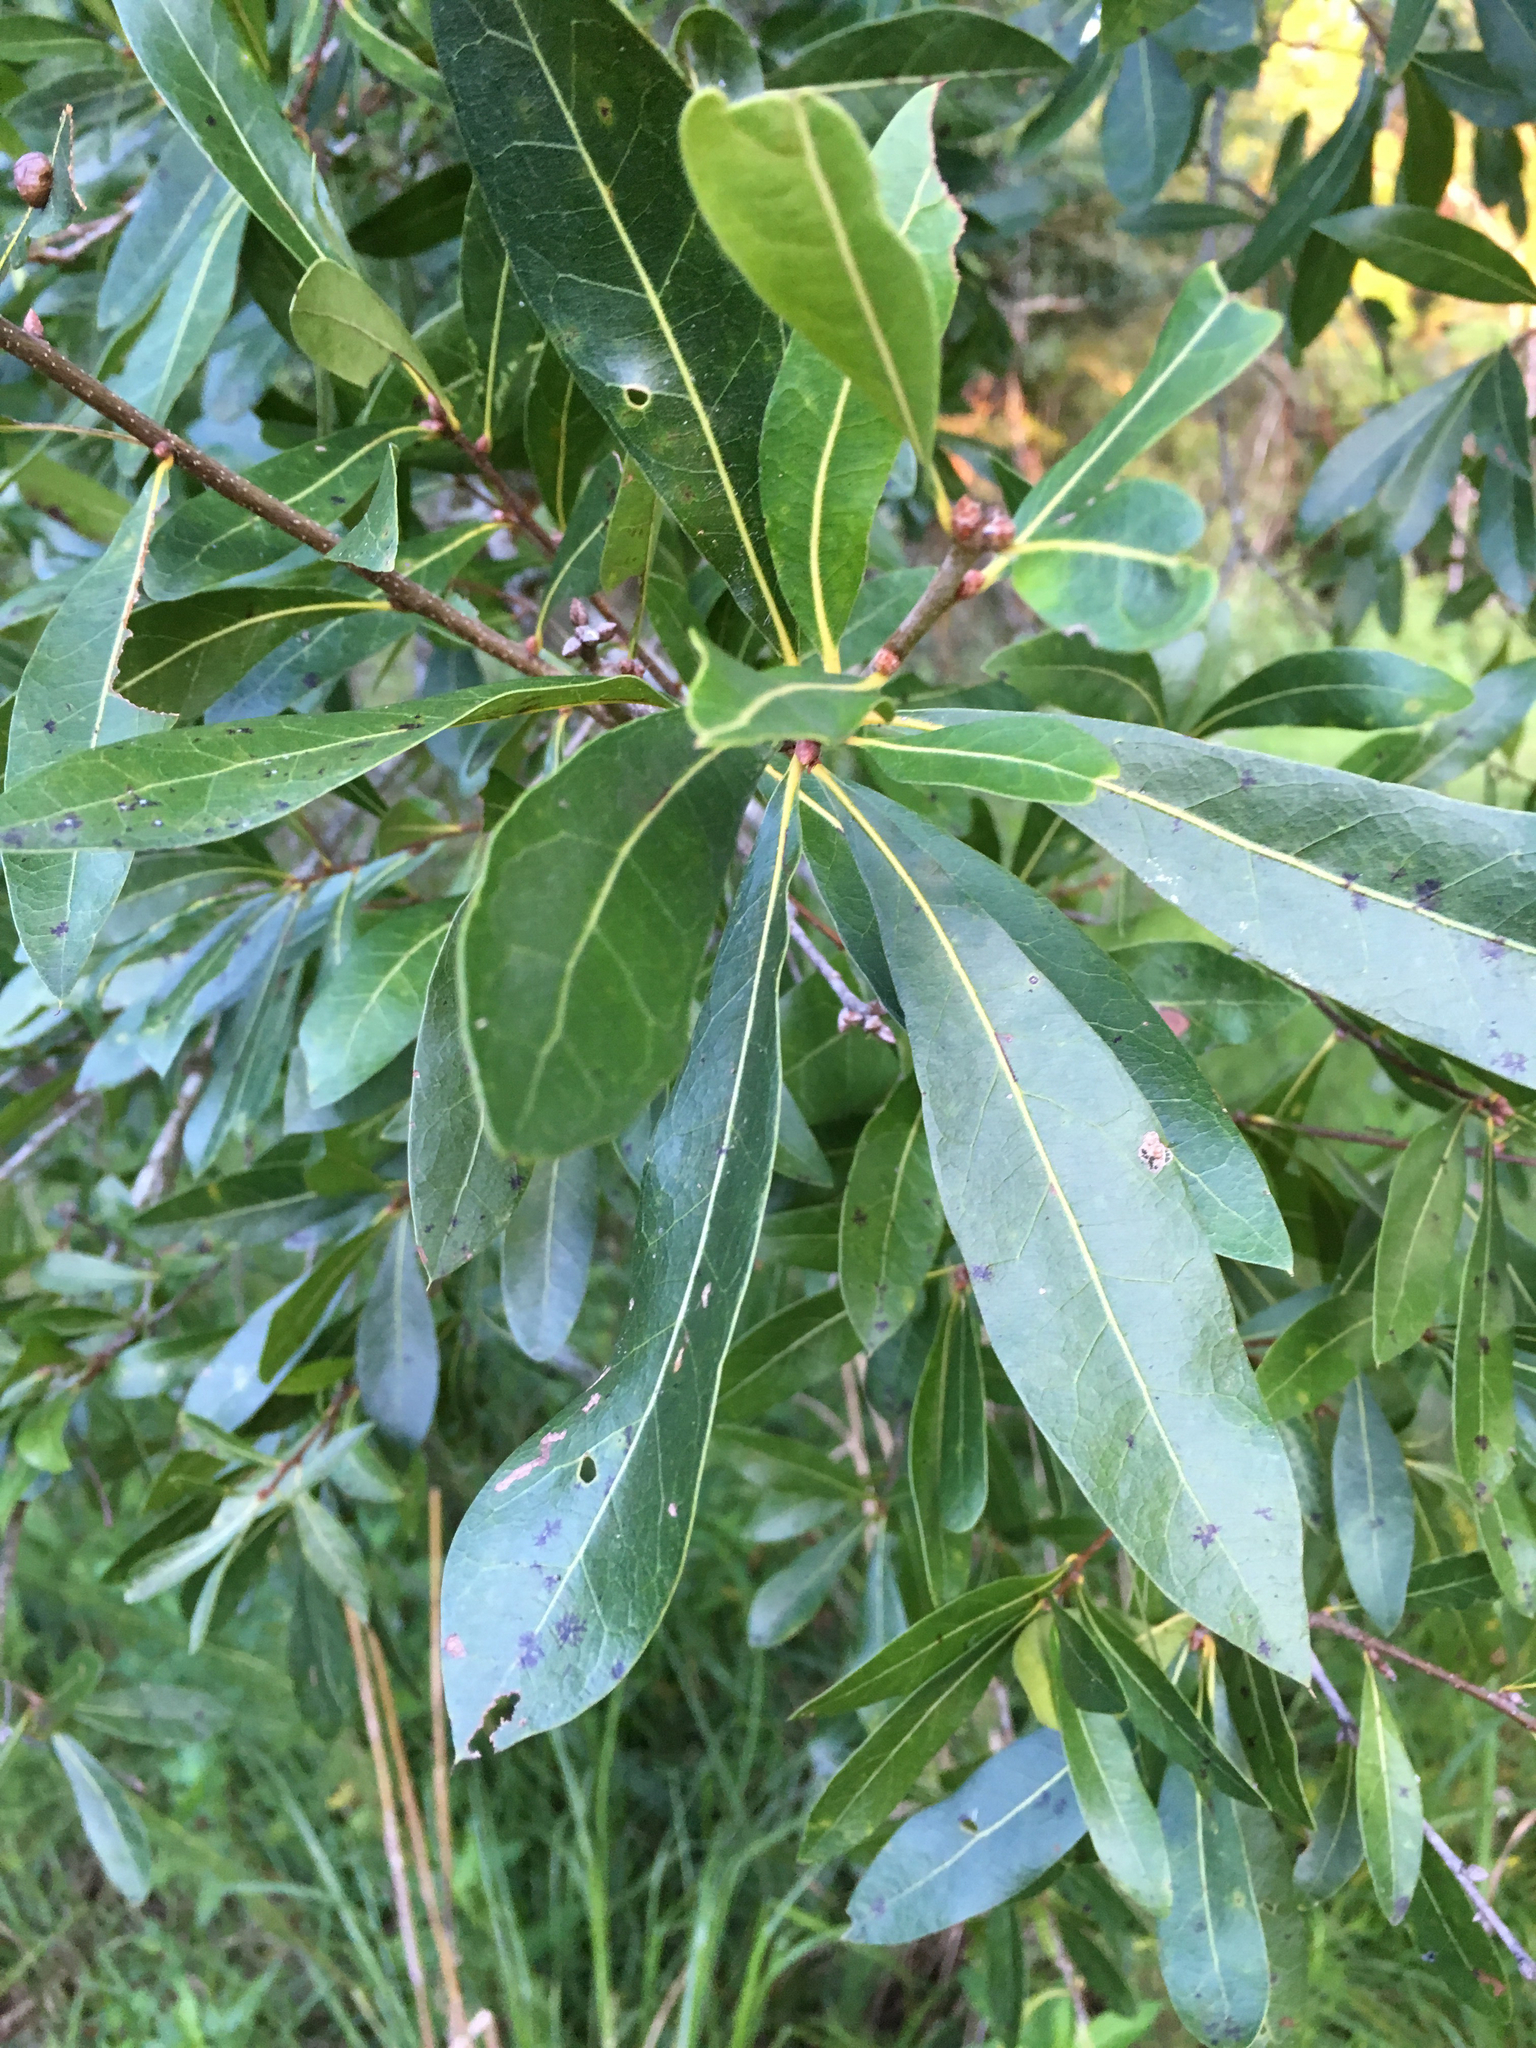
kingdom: Plantae
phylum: Tracheophyta
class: Magnoliopsida
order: Fagales
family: Fagaceae
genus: Quercus
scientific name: Quercus hemisphaerica
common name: Darlington oak
